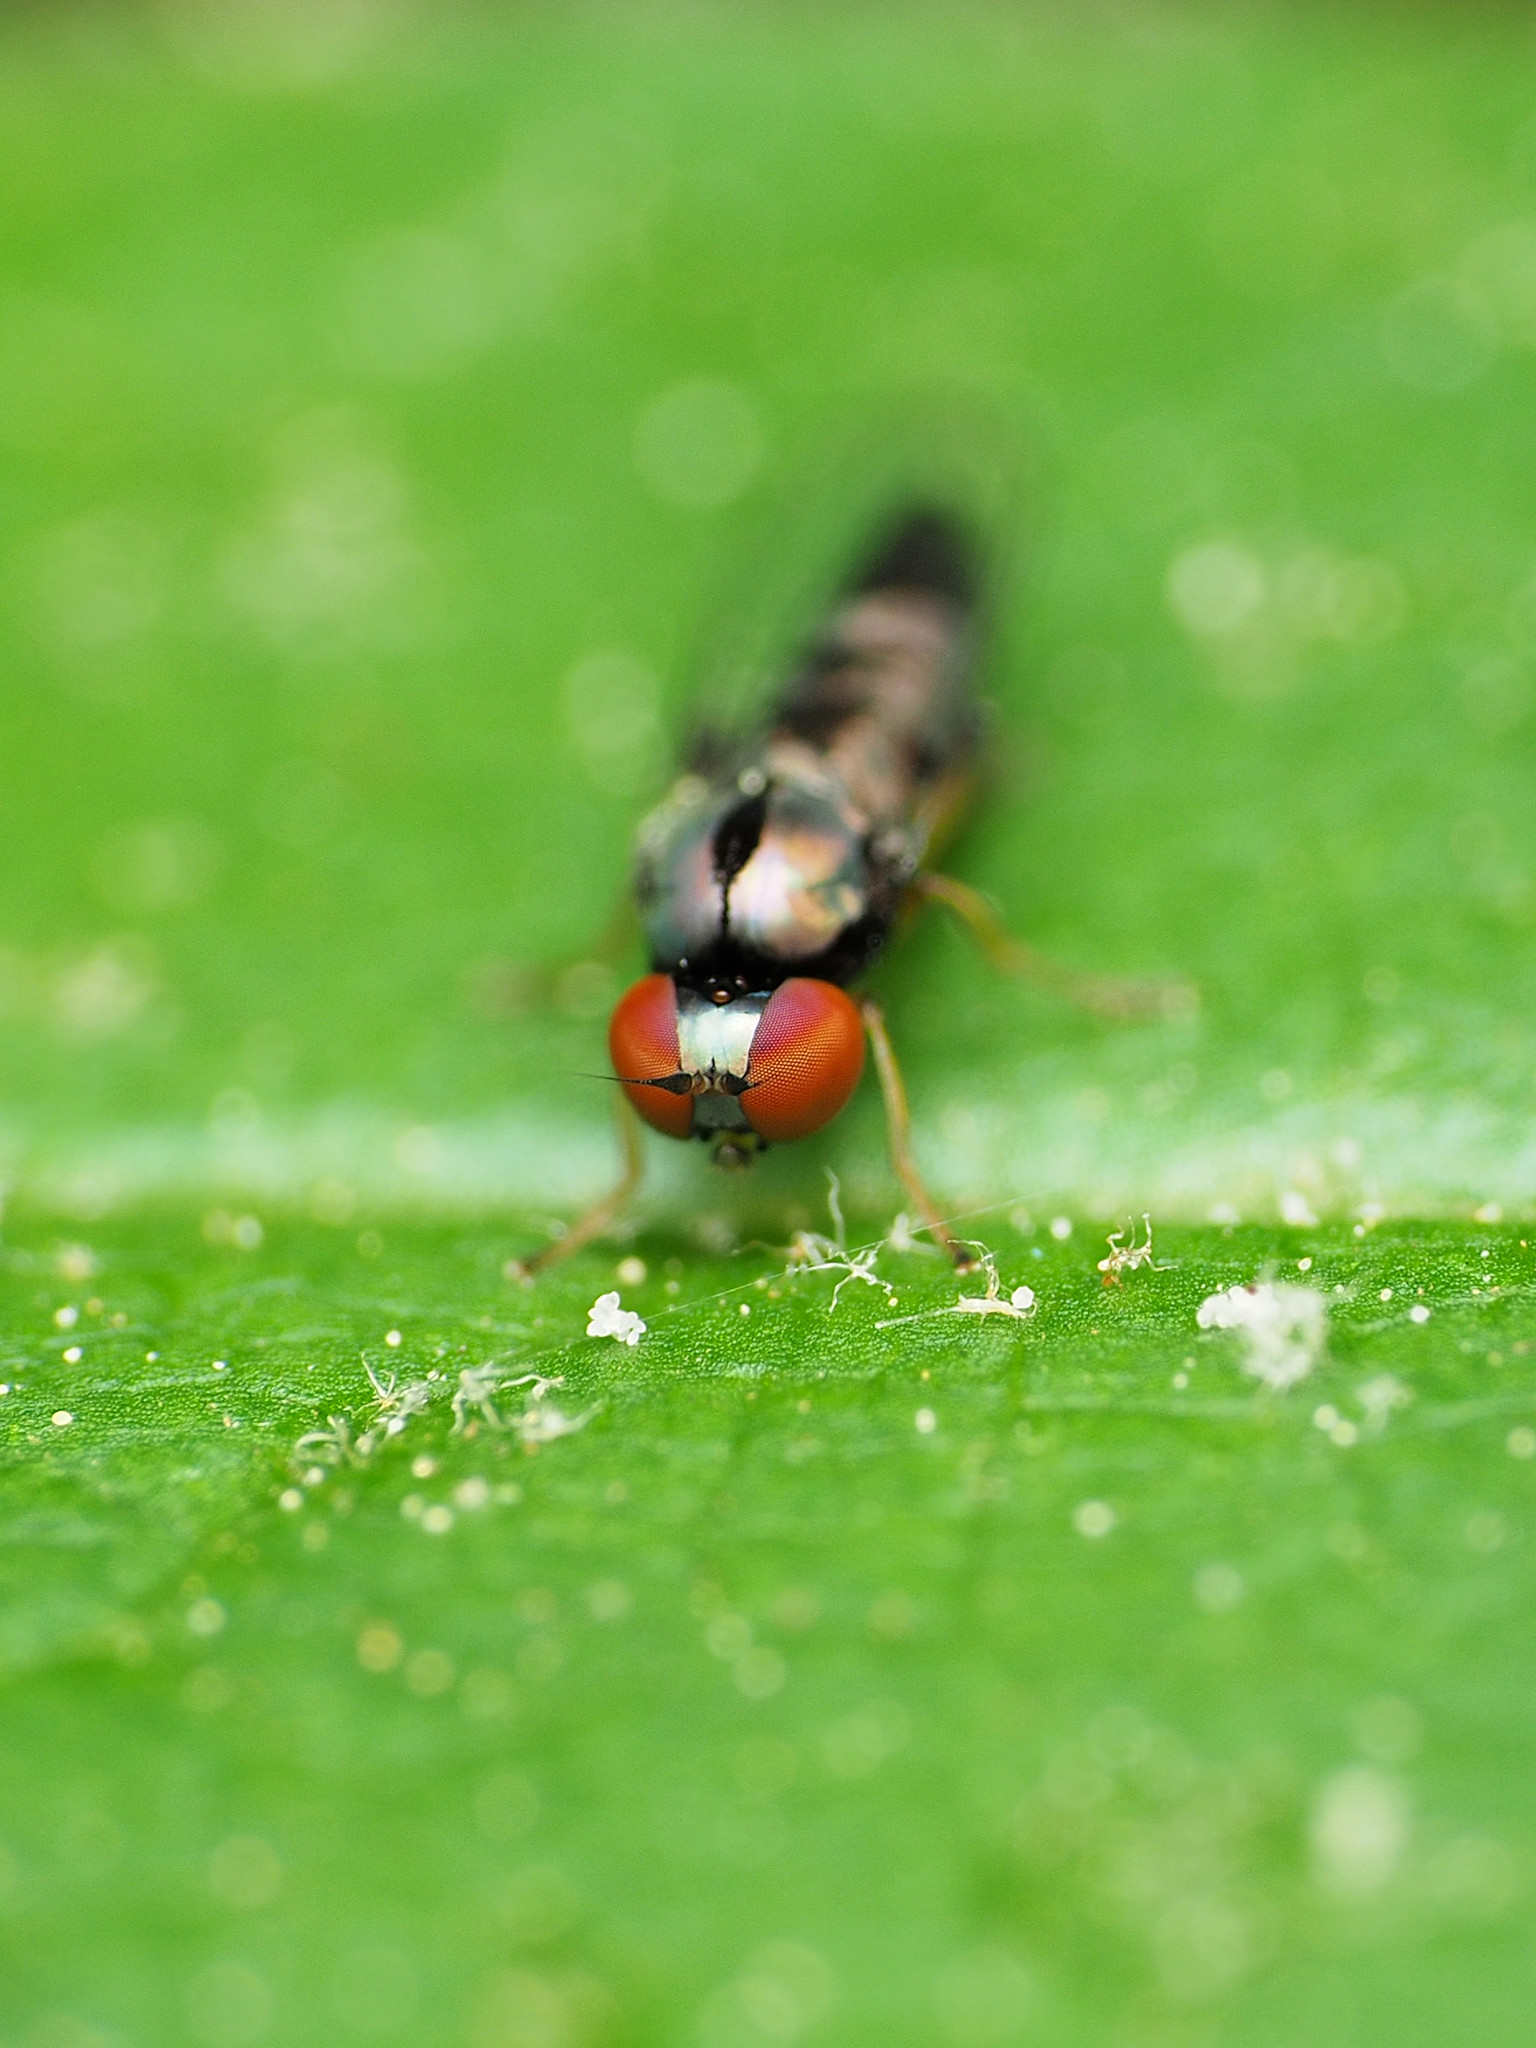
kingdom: Animalia
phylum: Arthropoda
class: Insecta
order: Diptera
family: Platypezidae
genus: Bertamyia
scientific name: Bertamyia notata
